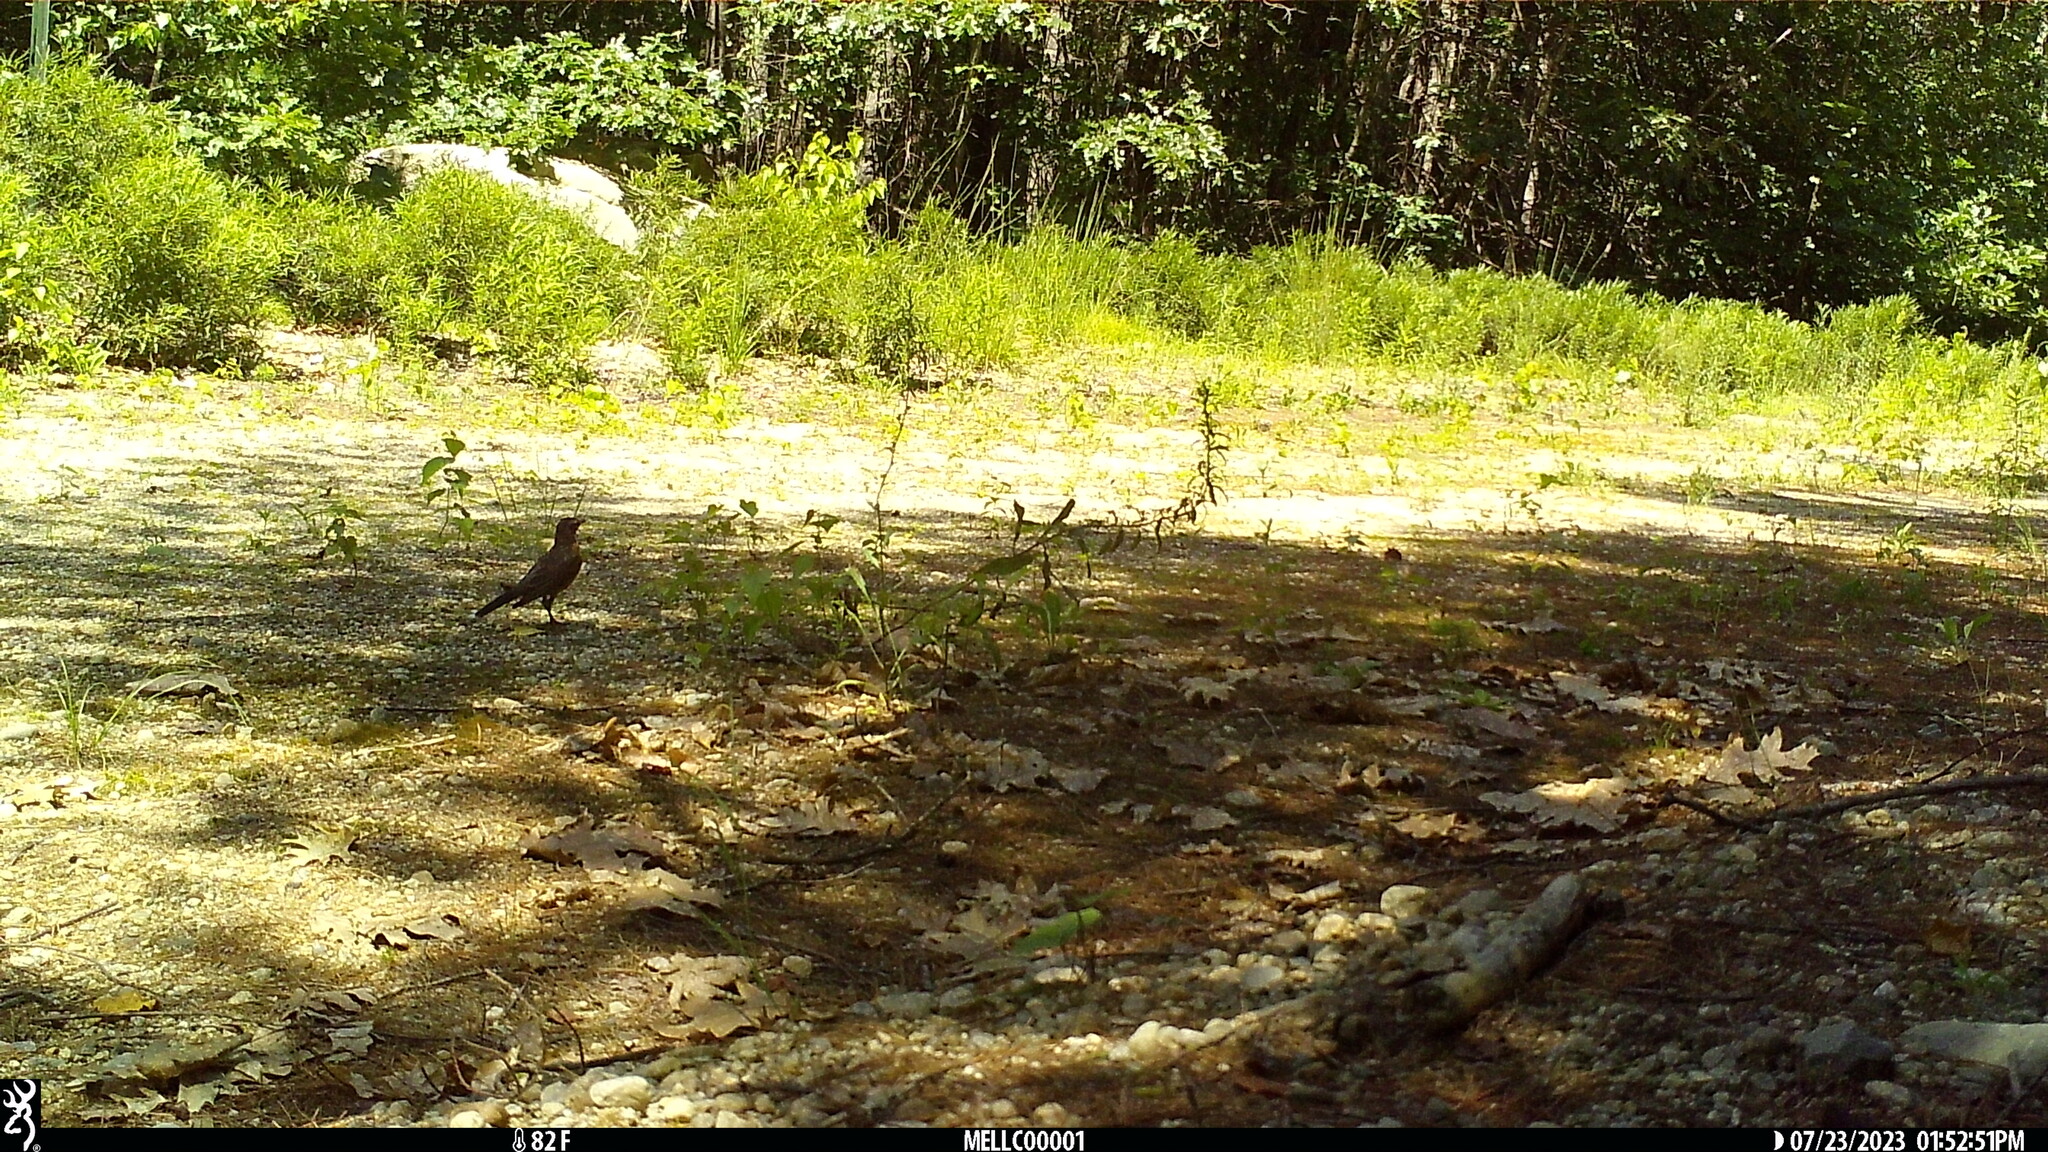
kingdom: Animalia
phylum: Chordata
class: Aves
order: Passeriformes
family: Turdidae
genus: Turdus
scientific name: Turdus migratorius
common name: American robin
